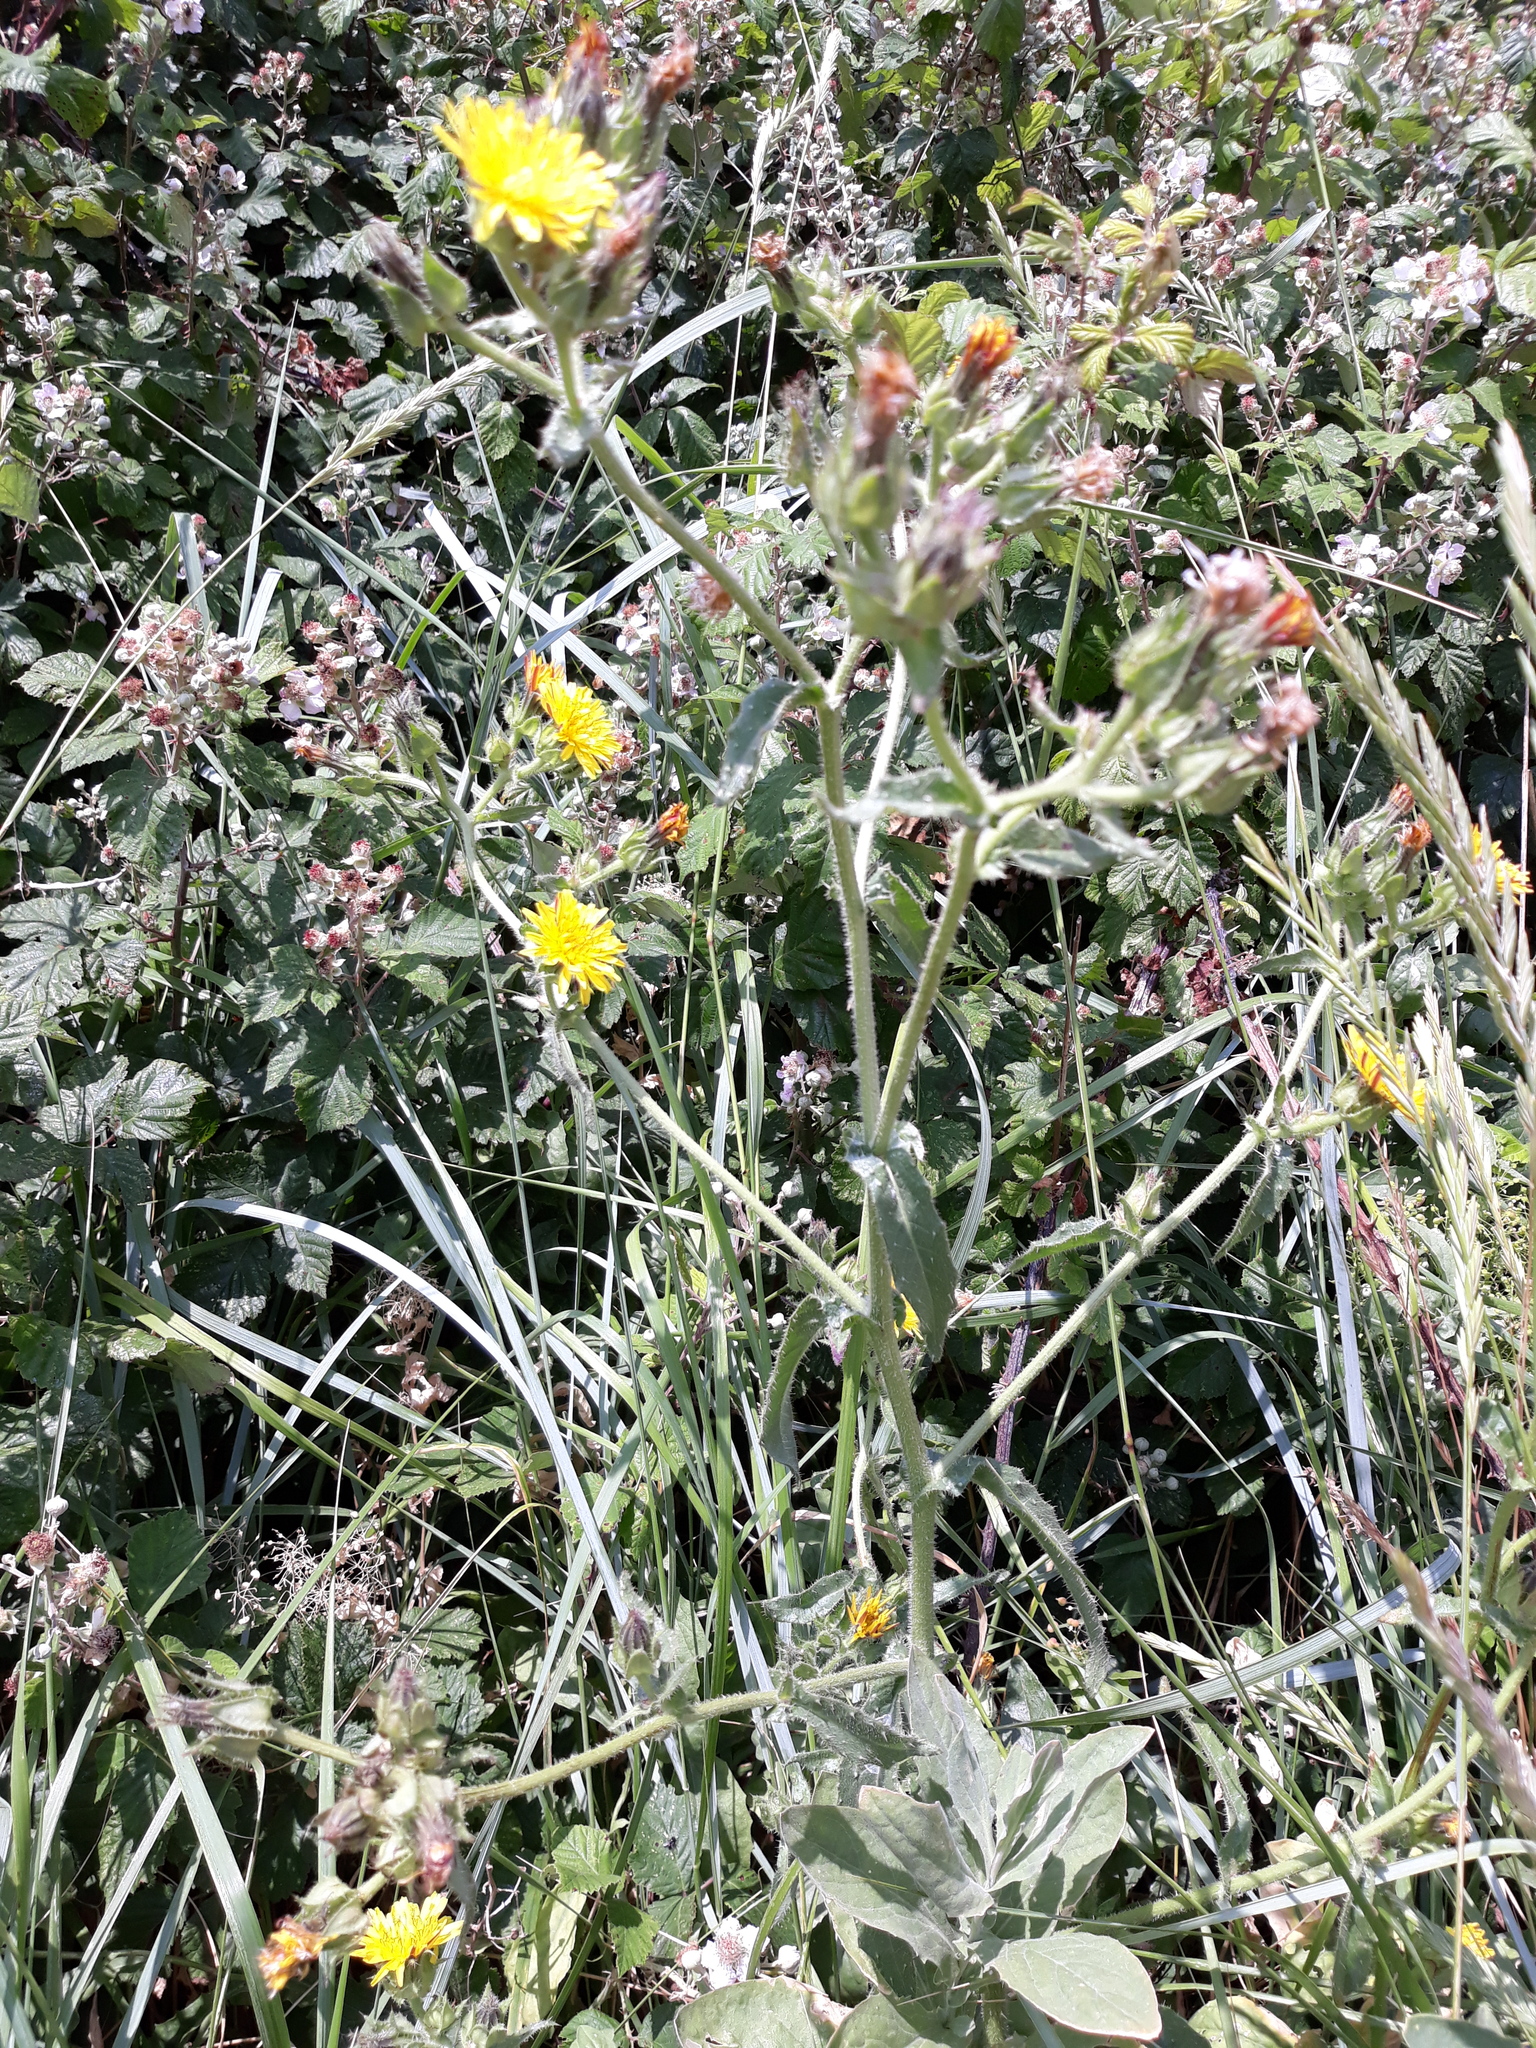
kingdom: Plantae
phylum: Tracheophyta
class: Magnoliopsida
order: Asterales
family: Asteraceae
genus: Helminthotheca
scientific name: Helminthotheca echioides
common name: Ox-tongue
